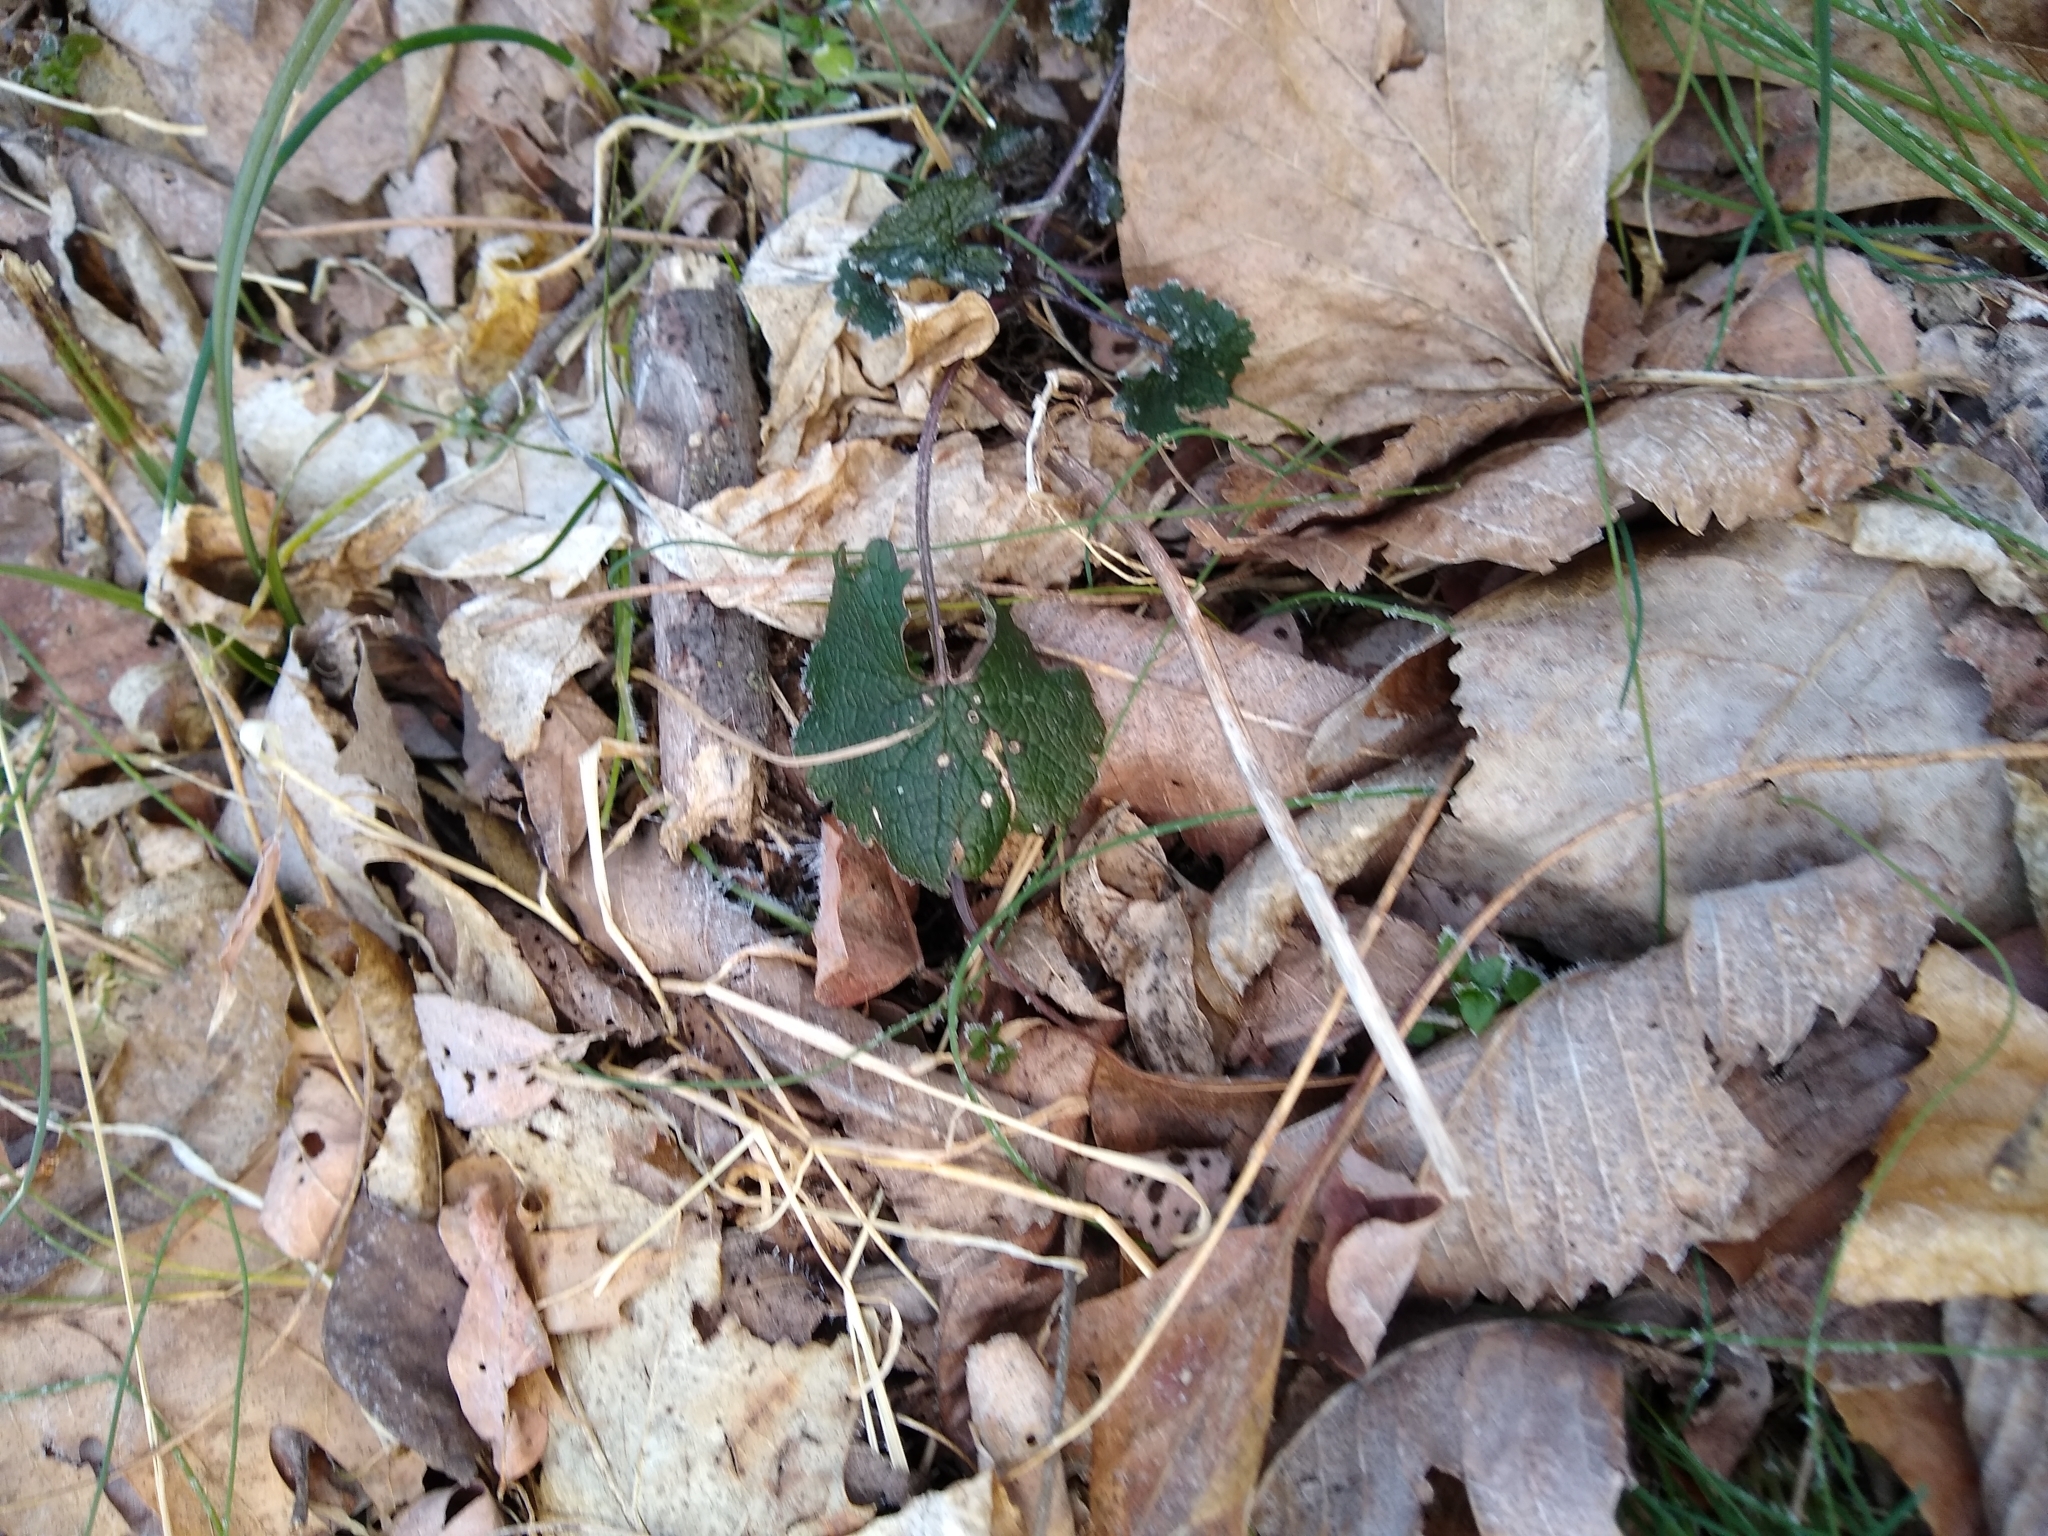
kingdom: Plantae
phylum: Tracheophyta
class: Magnoliopsida
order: Brassicales
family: Brassicaceae
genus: Alliaria
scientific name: Alliaria petiolata
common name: Garlic mustard
